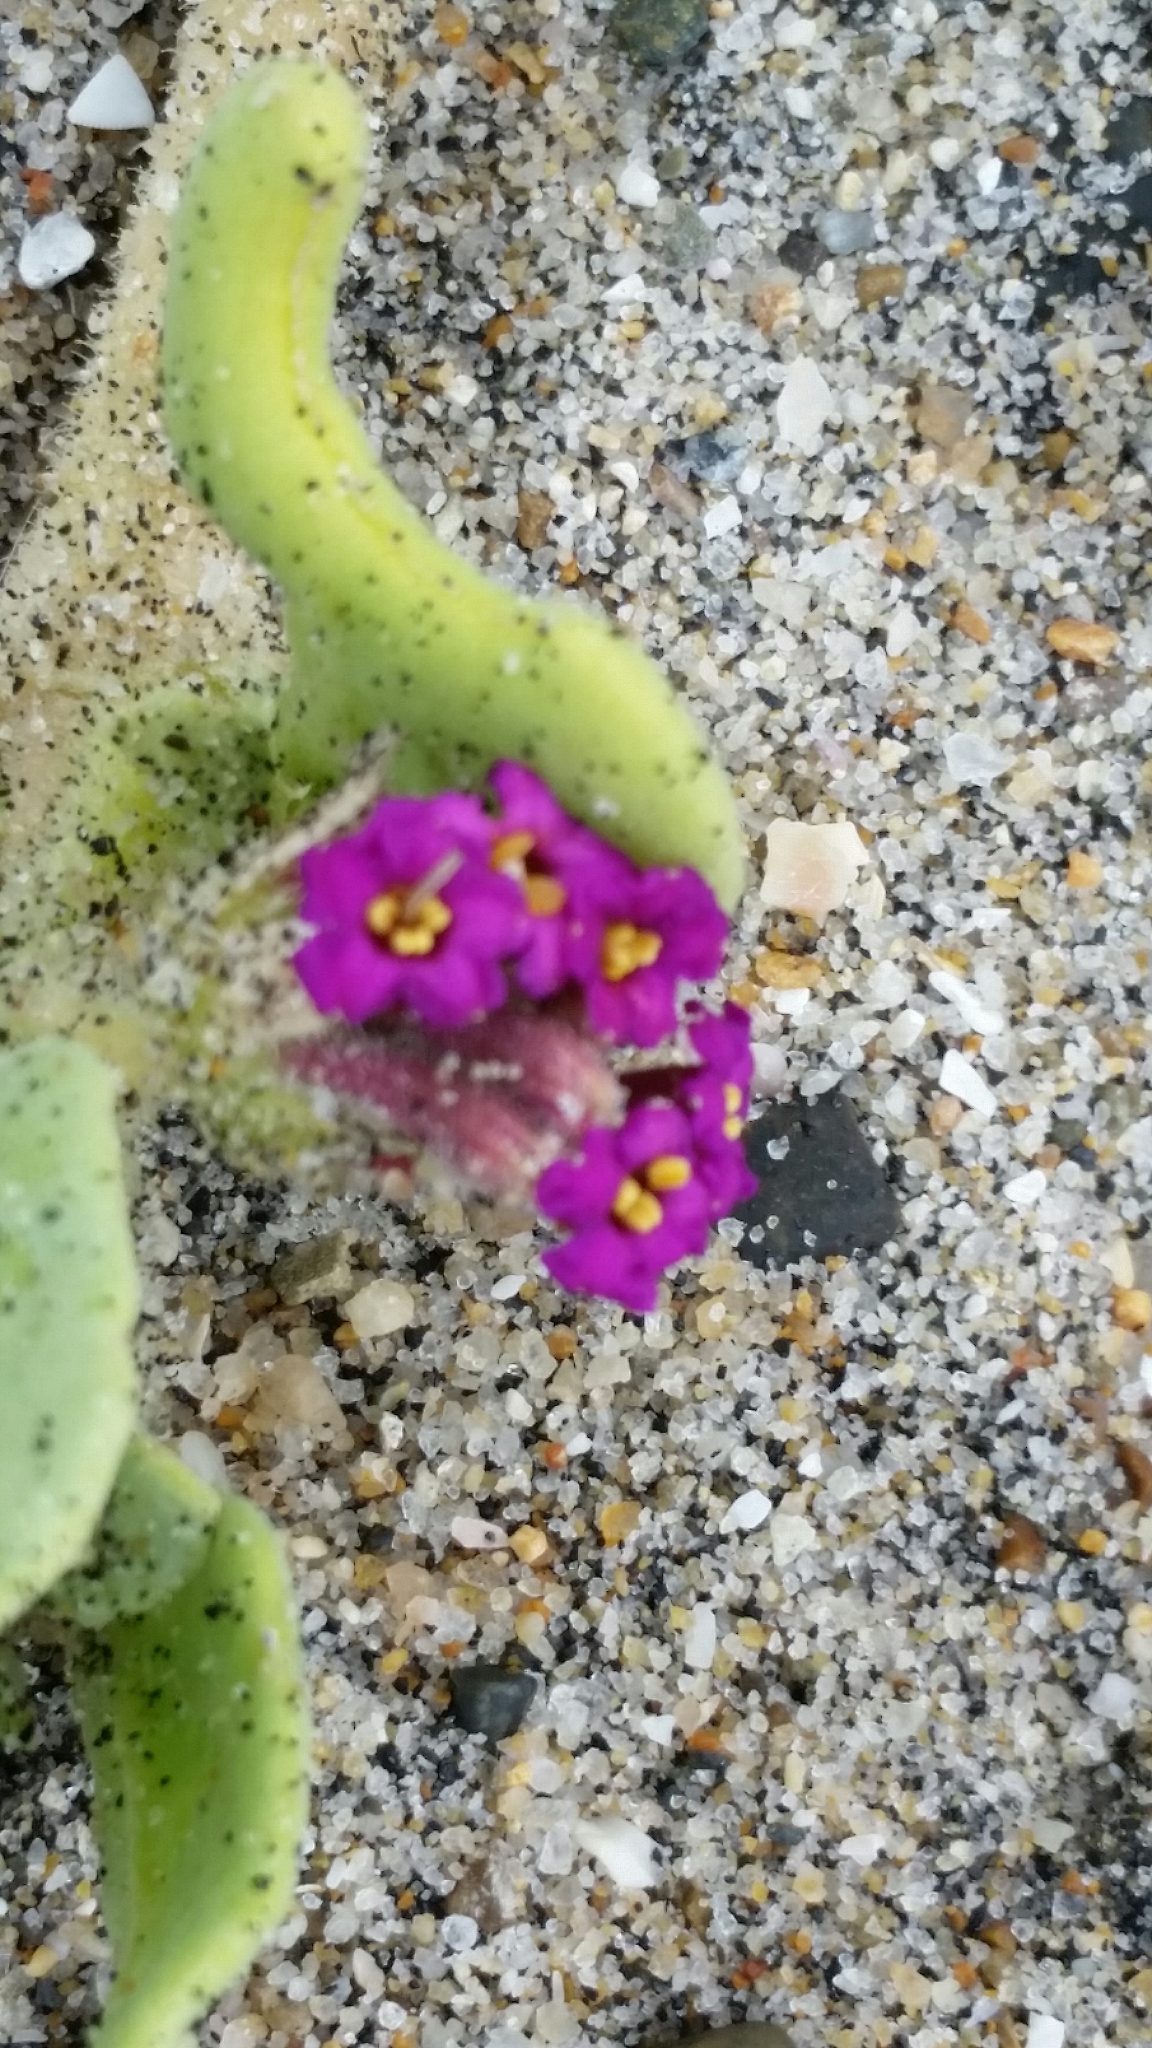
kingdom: Plantae
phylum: Tracheophyta
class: Magnoliopsida
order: Caryophyllales
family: Nyctaginaceae
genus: Abronia
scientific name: Abronia maritima
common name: Red sand-verbena
